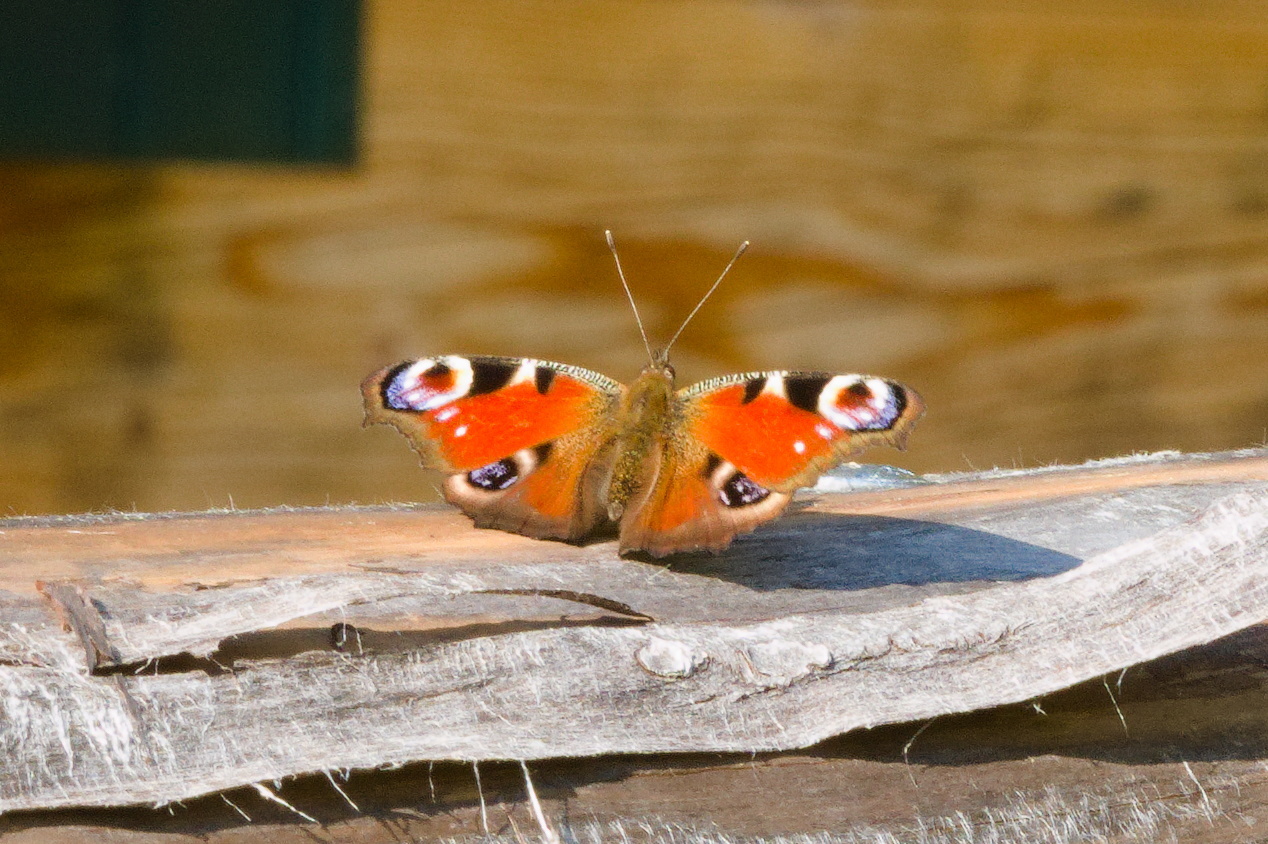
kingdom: Animalia
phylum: Arthropoda
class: Insecta
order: Lepidoptera
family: Nymphalidae
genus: Aglais
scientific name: Aglais io
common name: Peacock
